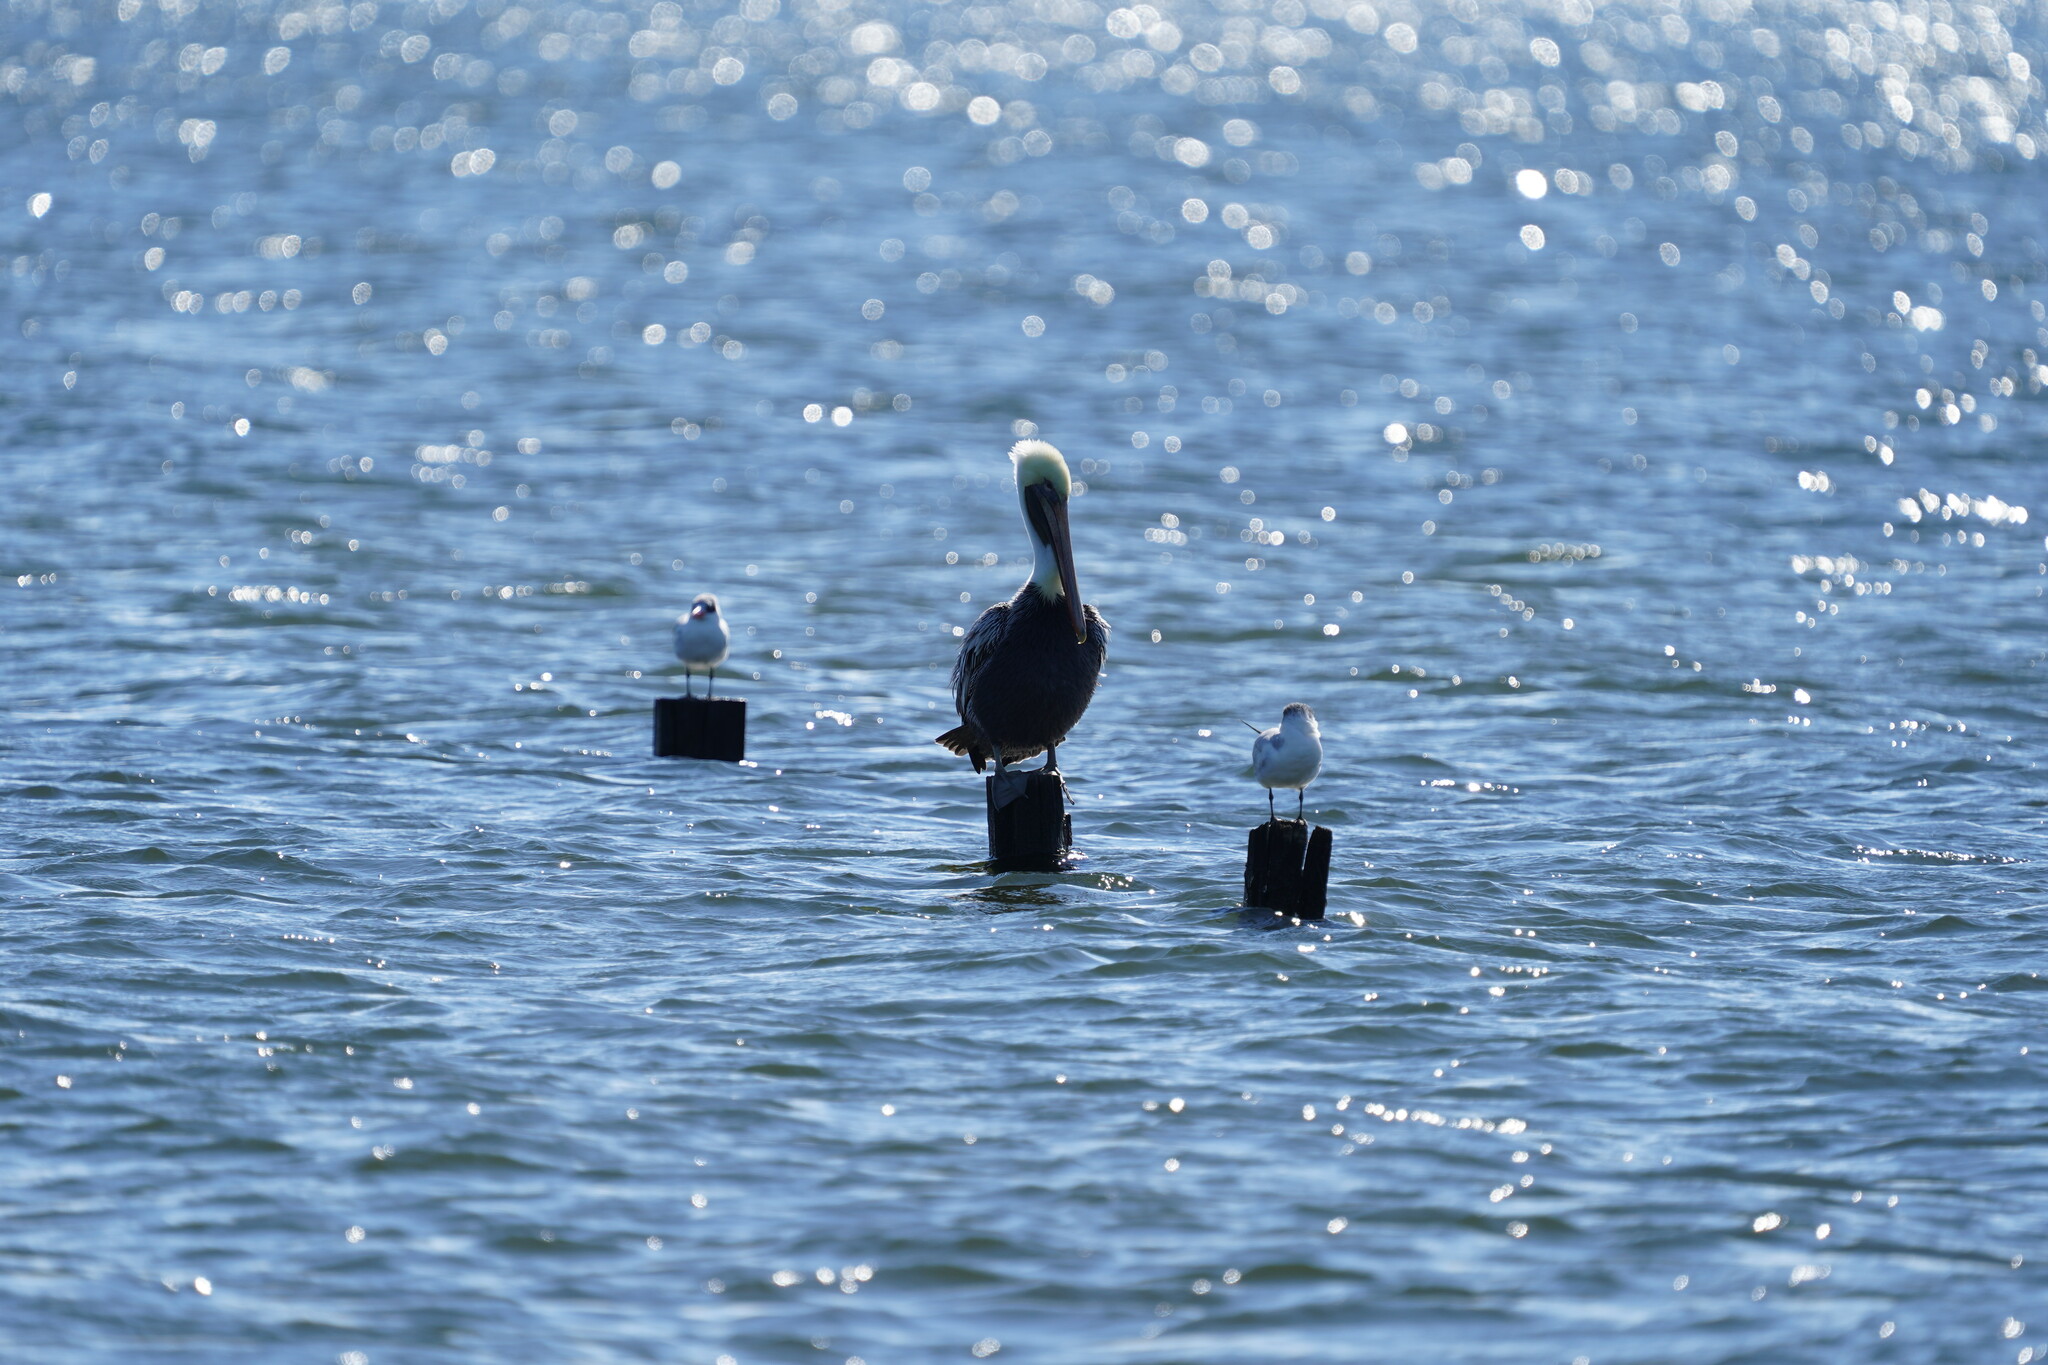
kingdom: Animalia
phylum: Chordata
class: Aves
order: Pelecaniformes
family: Pelecanidae
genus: Pelecanus
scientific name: Pelecanus occidentalis
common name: Brown pelican
